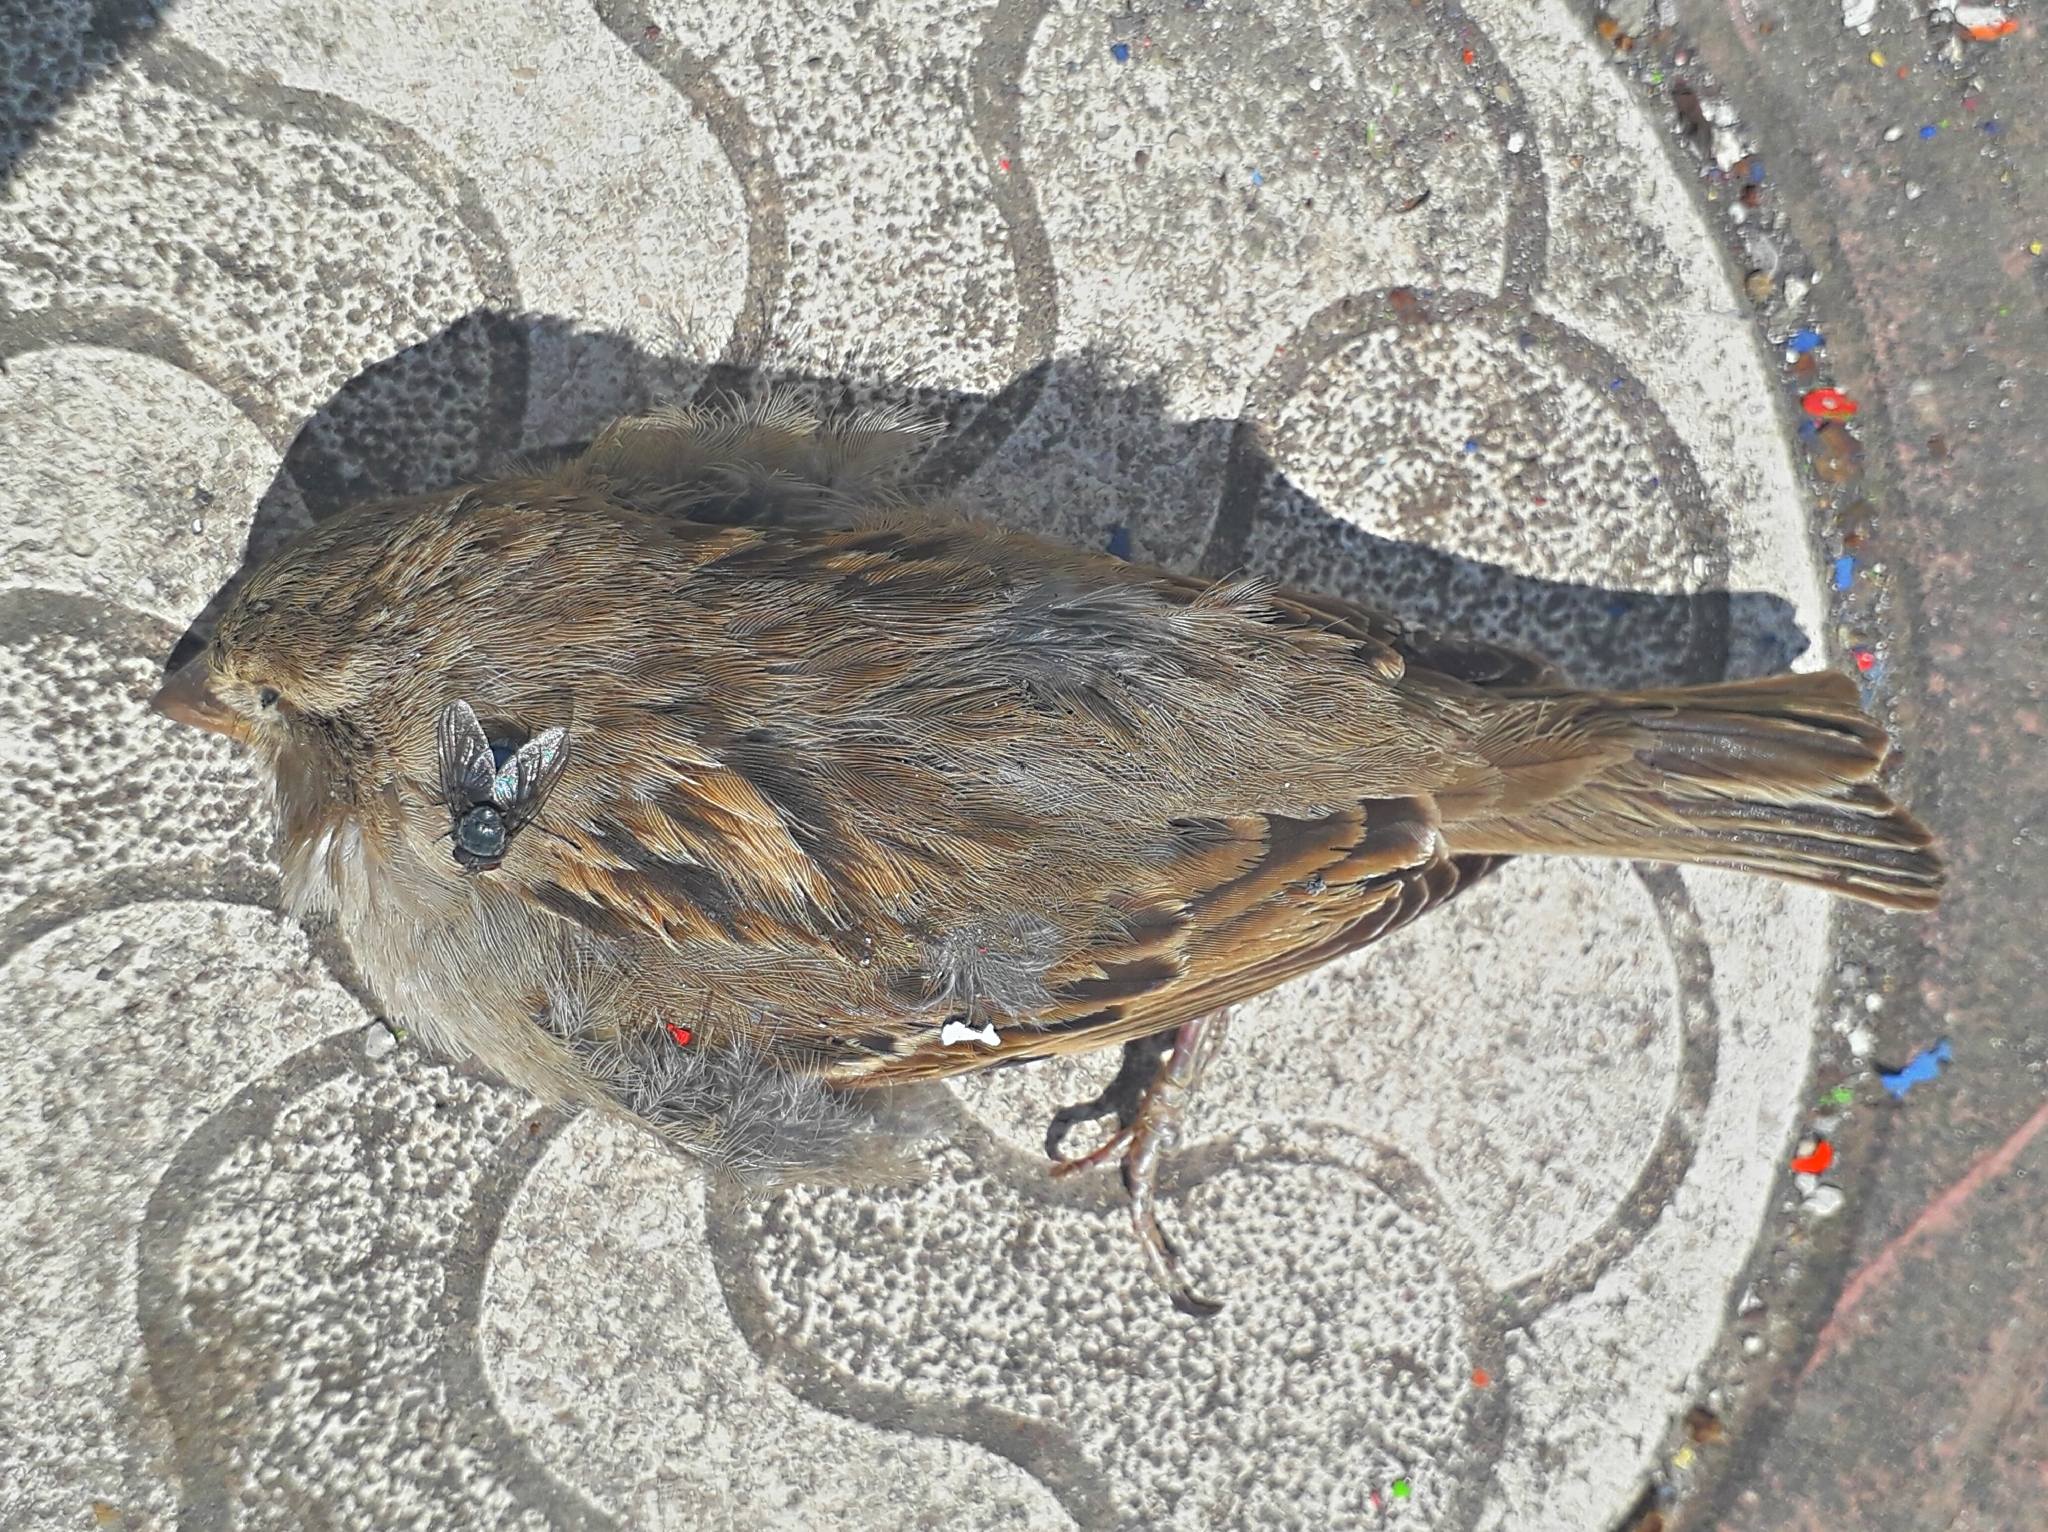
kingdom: Animalia
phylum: Chordata
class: Aves
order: Passeriformes
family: Passeridae
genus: Passer
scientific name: Passer domesticus
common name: House sparrow
